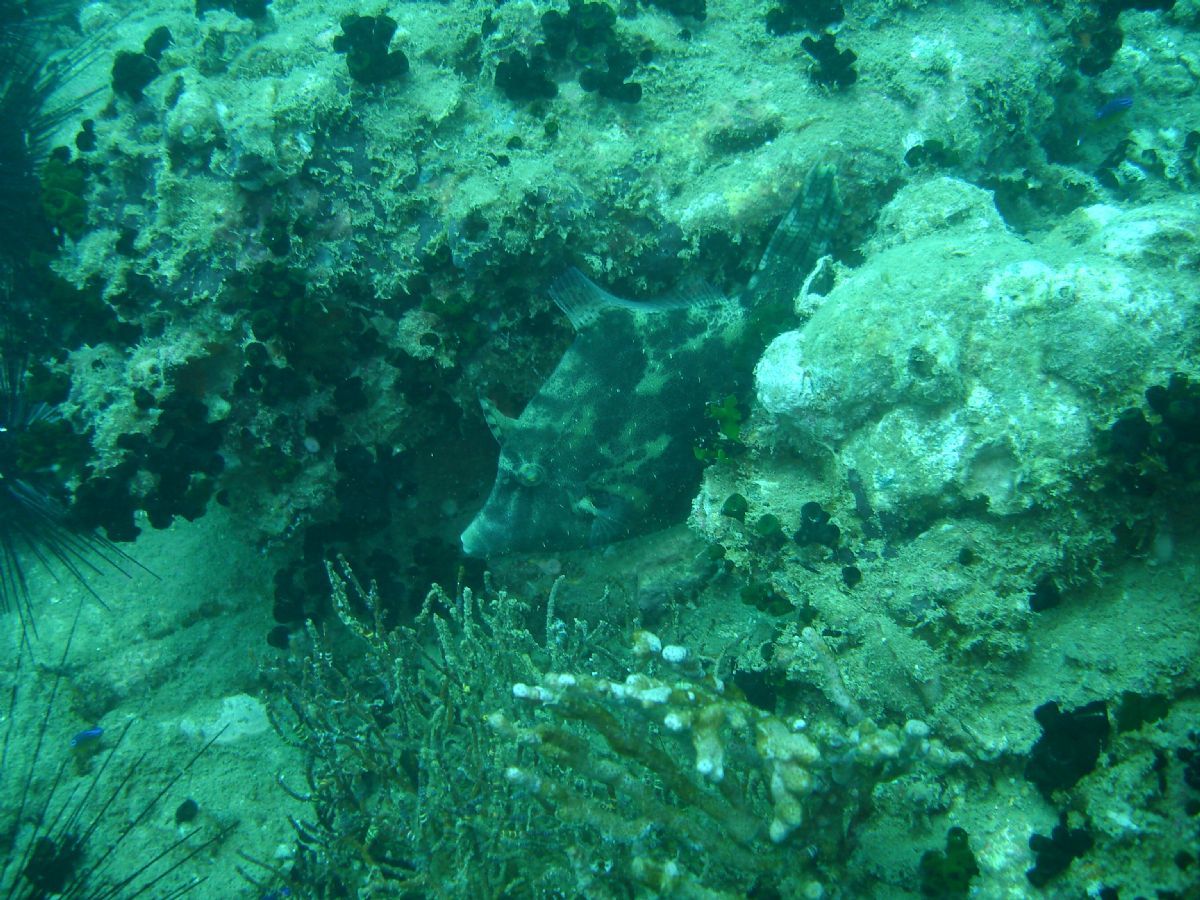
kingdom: Animalia
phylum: Chordata
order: Tetraodontiformes
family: Monacanthidae
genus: Monacanthus
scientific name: Monacanthus chinensis
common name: Centreboard leatherjacket
